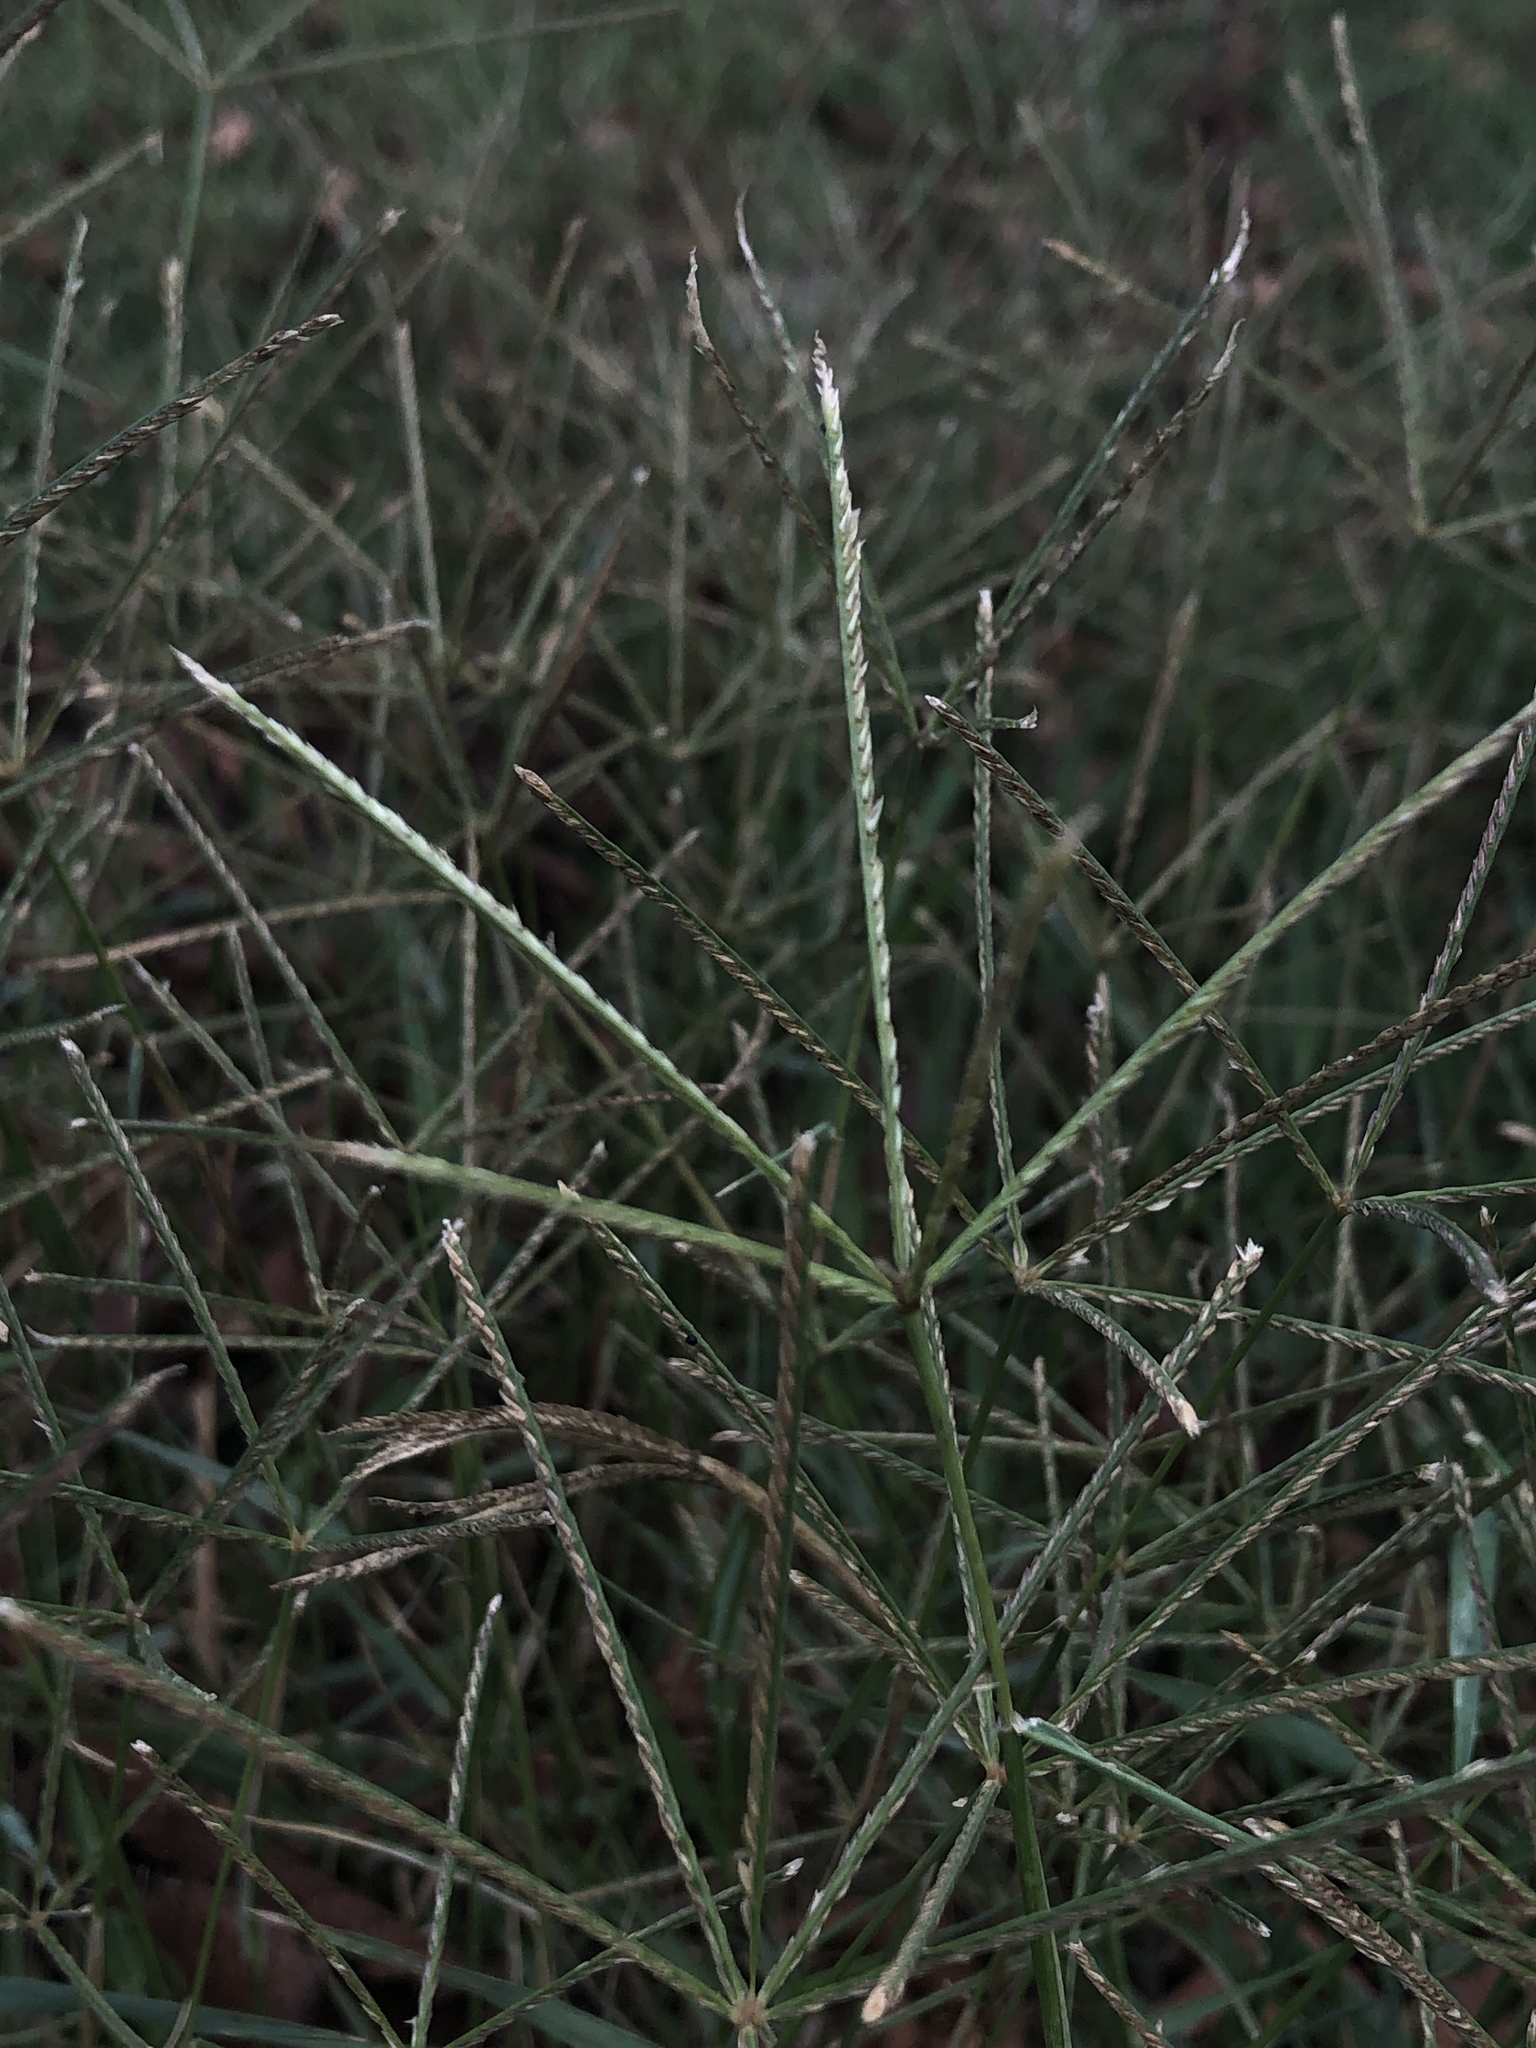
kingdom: Plantae
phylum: Tracheophyta
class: Liliopsida
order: Poales
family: Poaceae
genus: Cynodon
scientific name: Cynodon dactylon
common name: Bermuda grass
